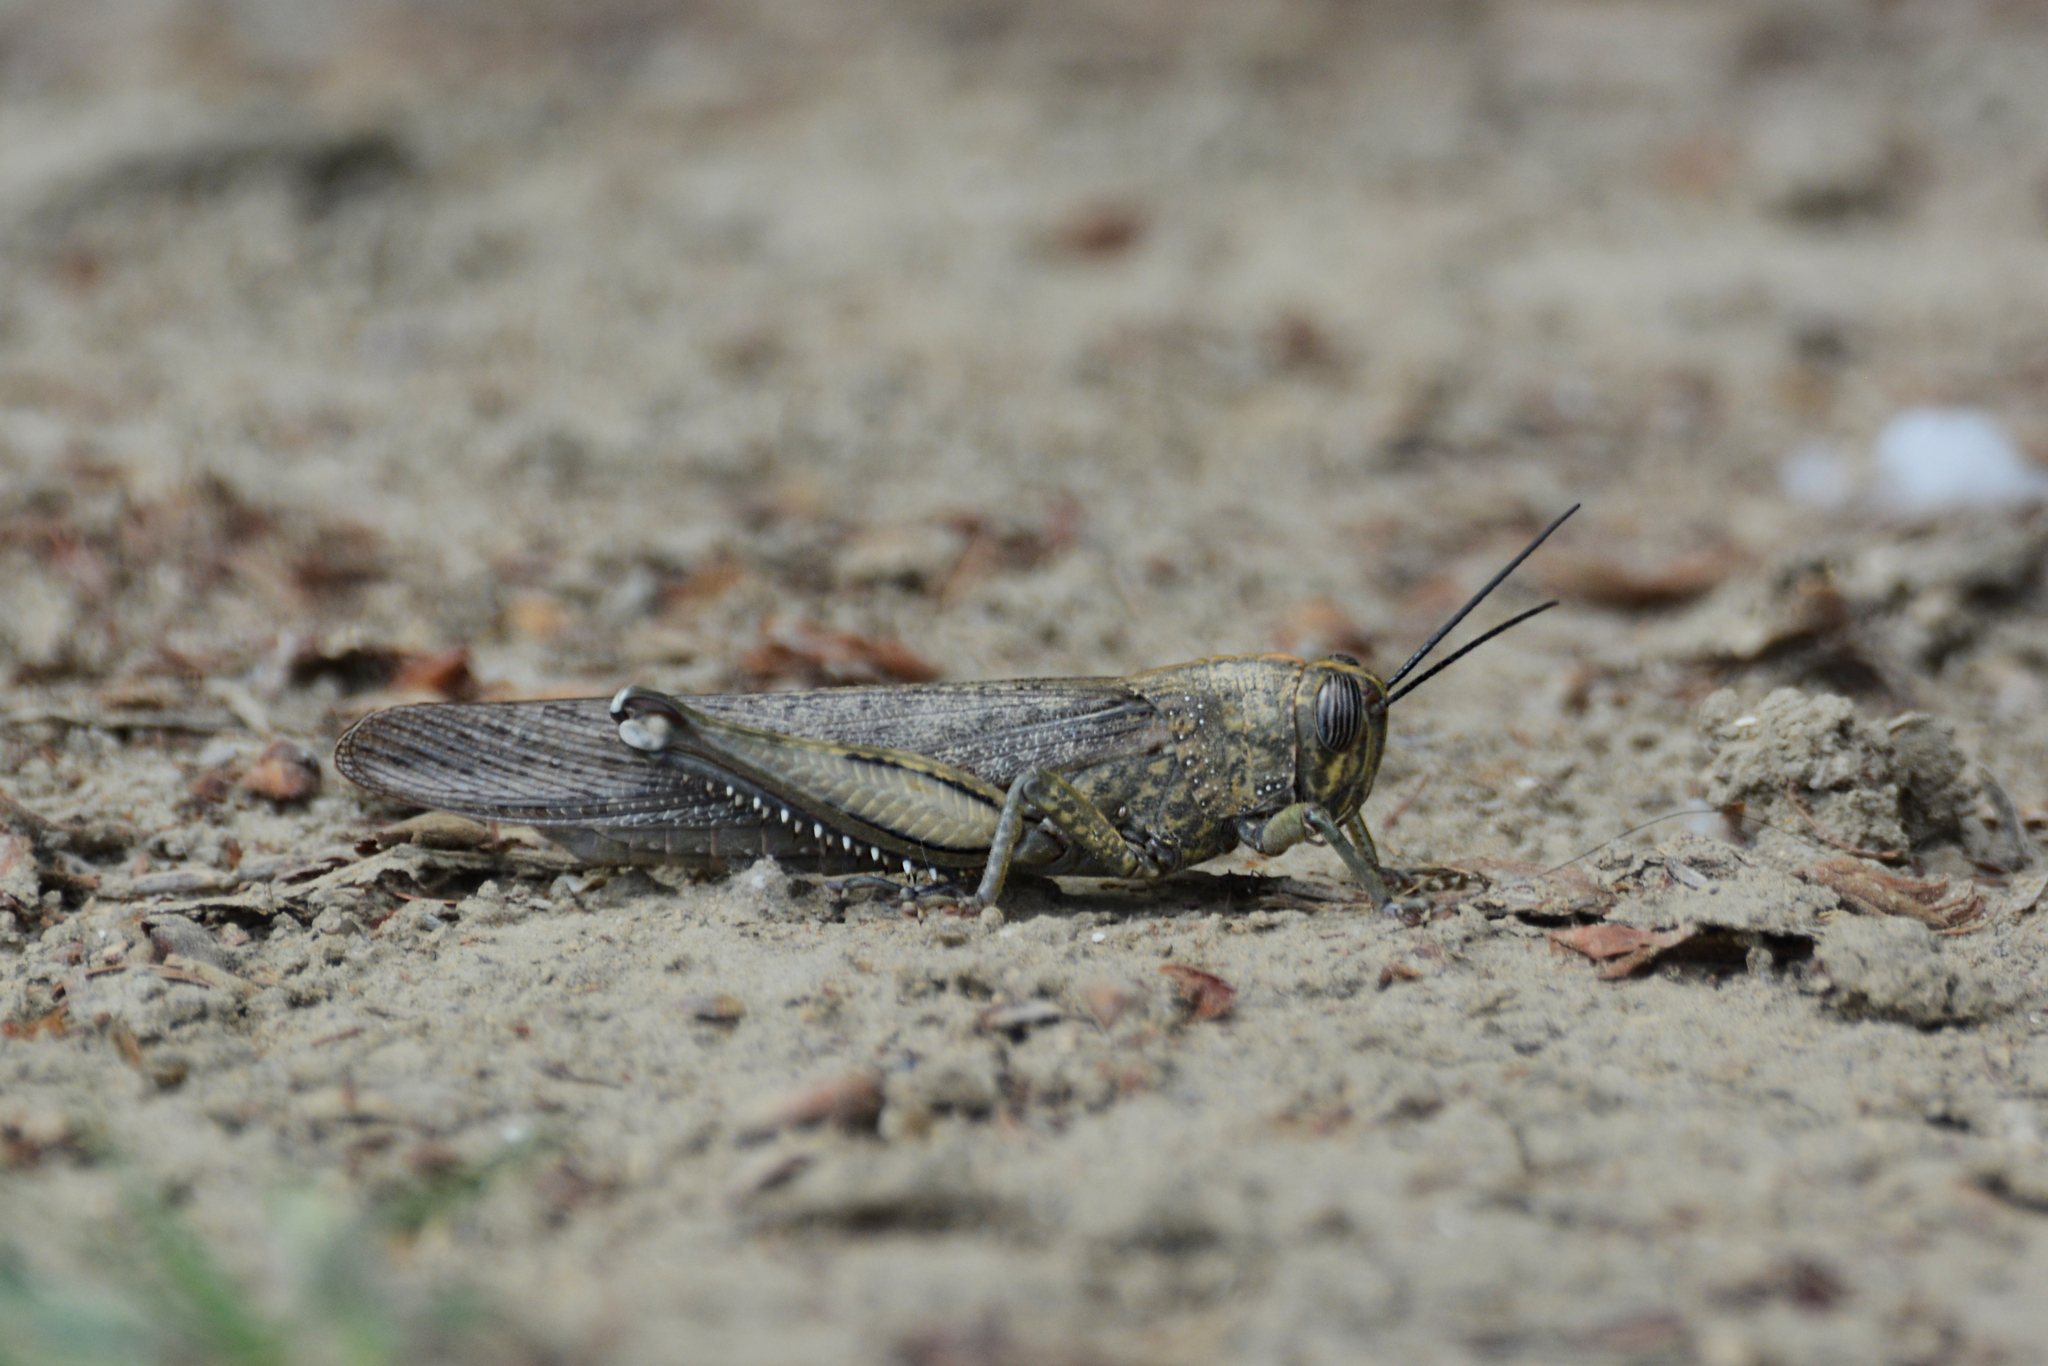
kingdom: Animalia
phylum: Arthropoda
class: Insecta
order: Orthoptera
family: Acrididae
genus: Anacridium
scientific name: Anacridium aegyptium
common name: Egyptian grasshopper
